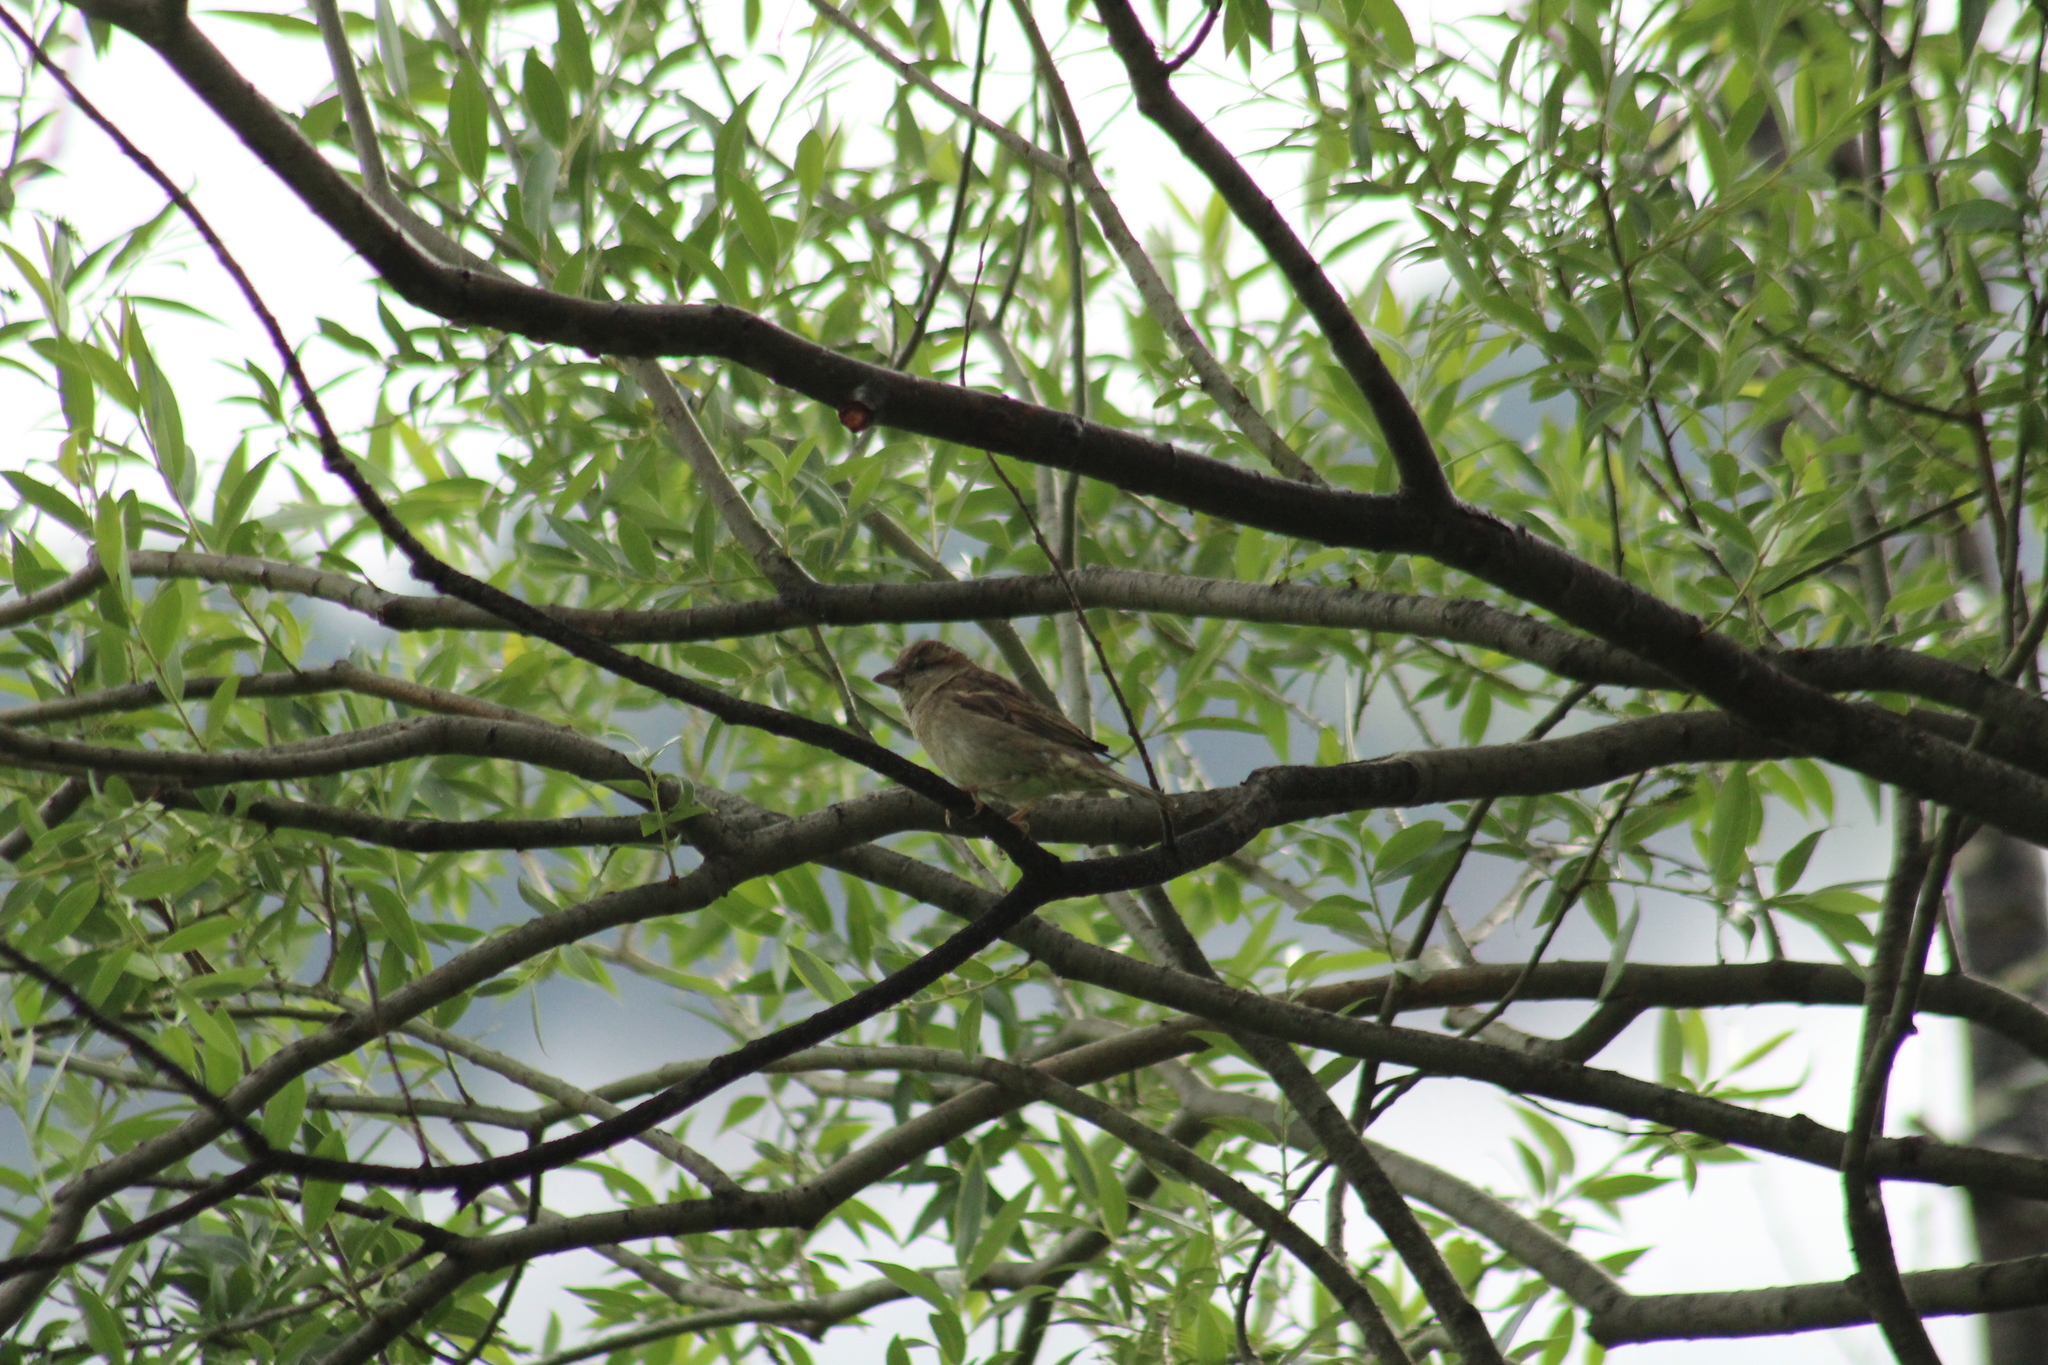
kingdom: Animalia
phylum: Chordata
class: Aves
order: Passeriformes
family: Passeridae
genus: Passer
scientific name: Passer domesticus
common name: House sparrow
